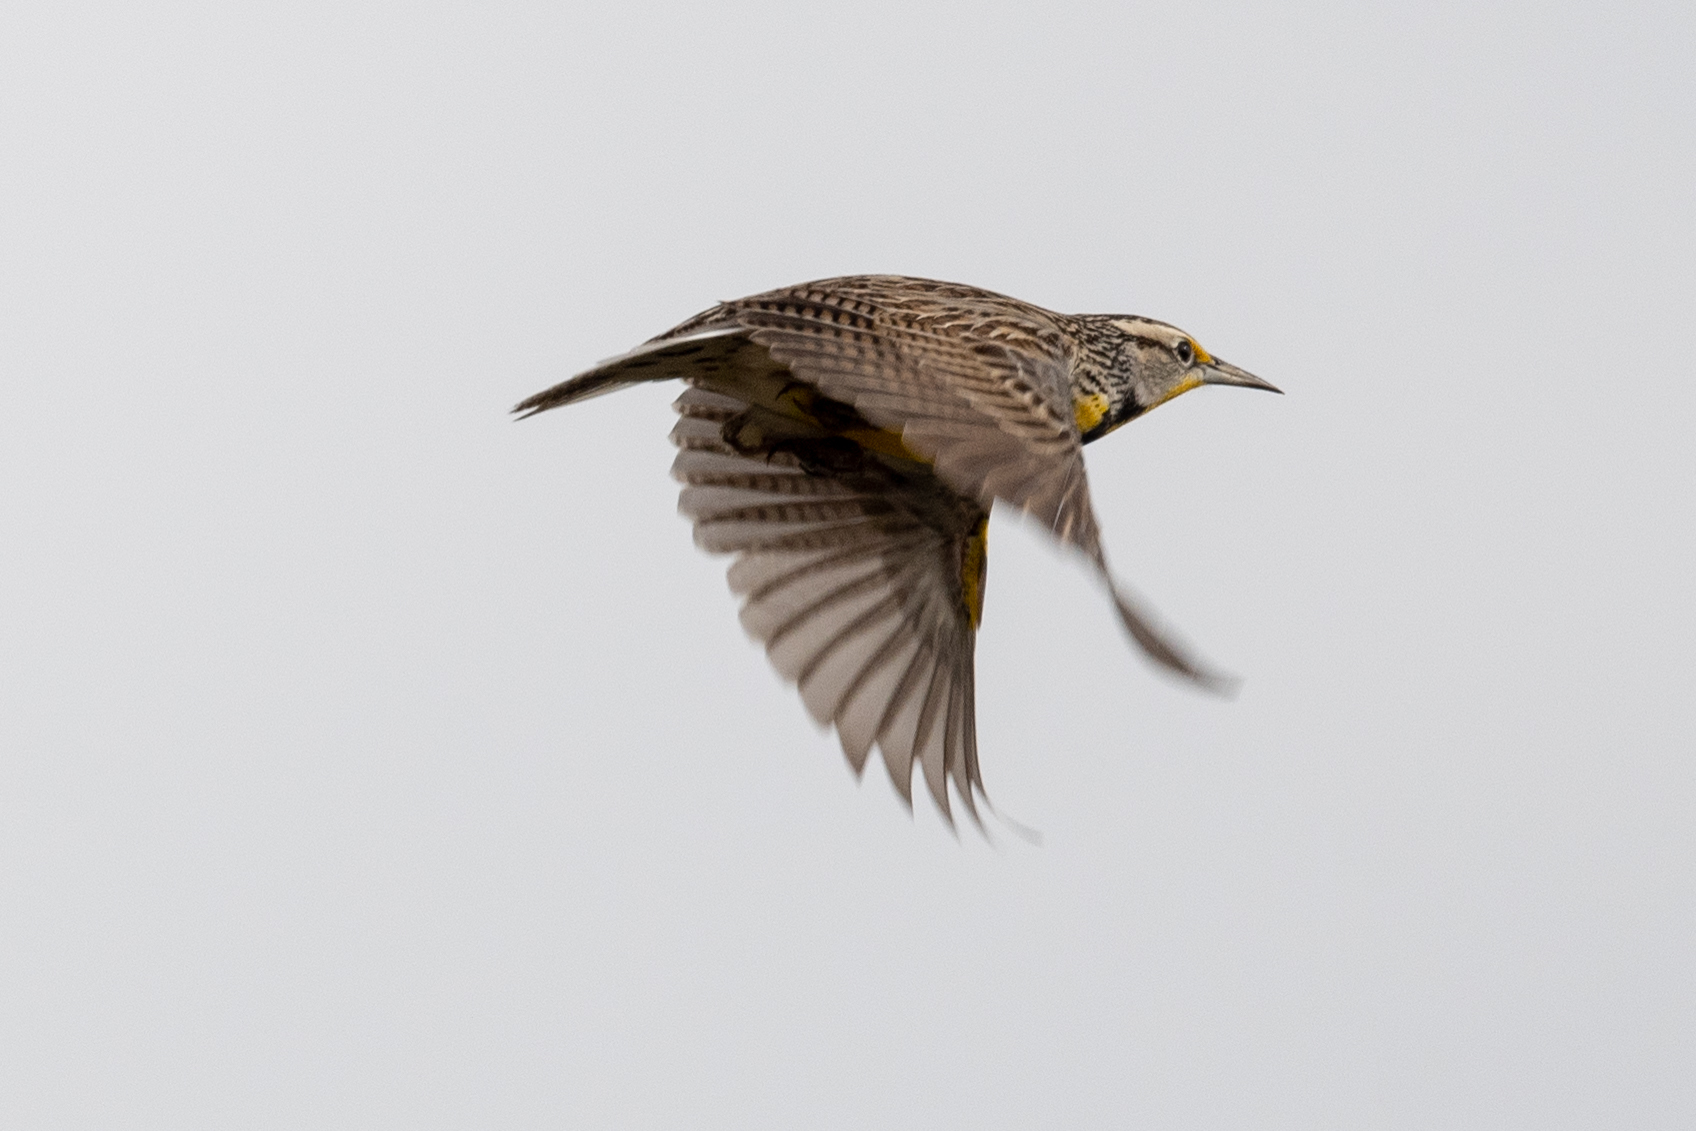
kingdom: Animalia
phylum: Chordata
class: Aves
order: Passeriformes
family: Icteridae
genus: Sturnella
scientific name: Sturnella neglecta
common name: Western meadowlark
